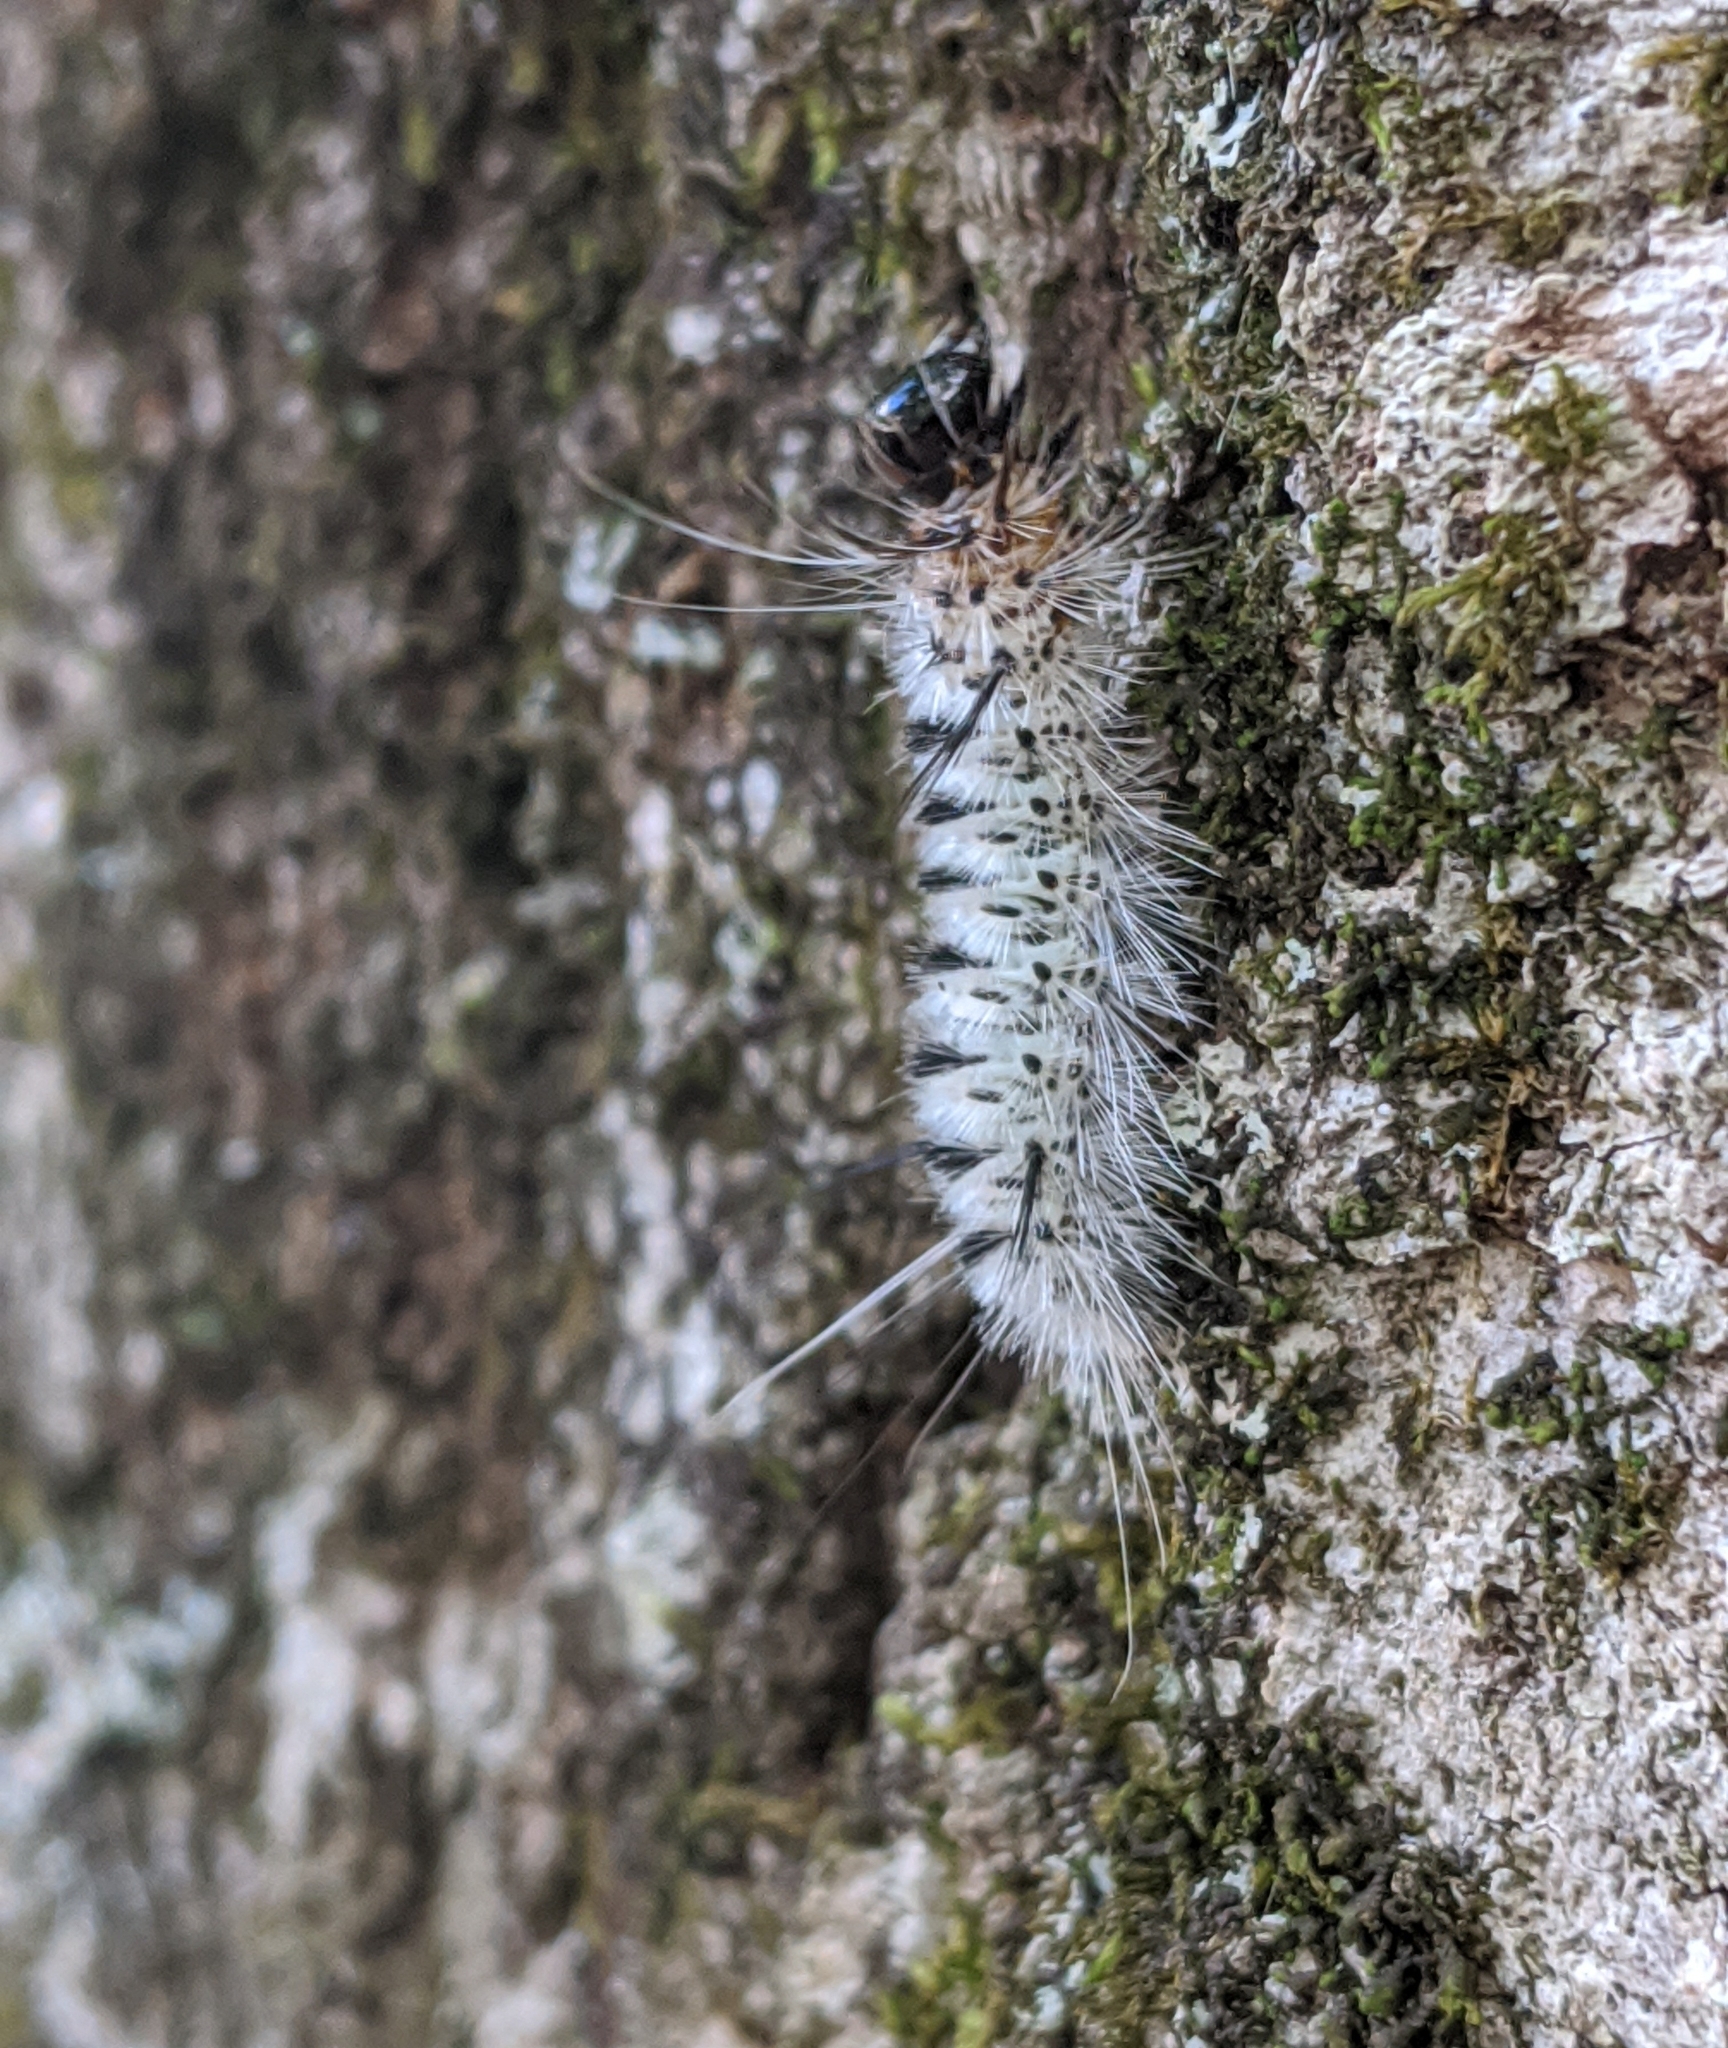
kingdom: Animalia
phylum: Arthropoda
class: Insecta
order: Lepidoptera
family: Erebidae
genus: Lophocampa
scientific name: Lophocampa caryae
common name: Hickory tussock moth
